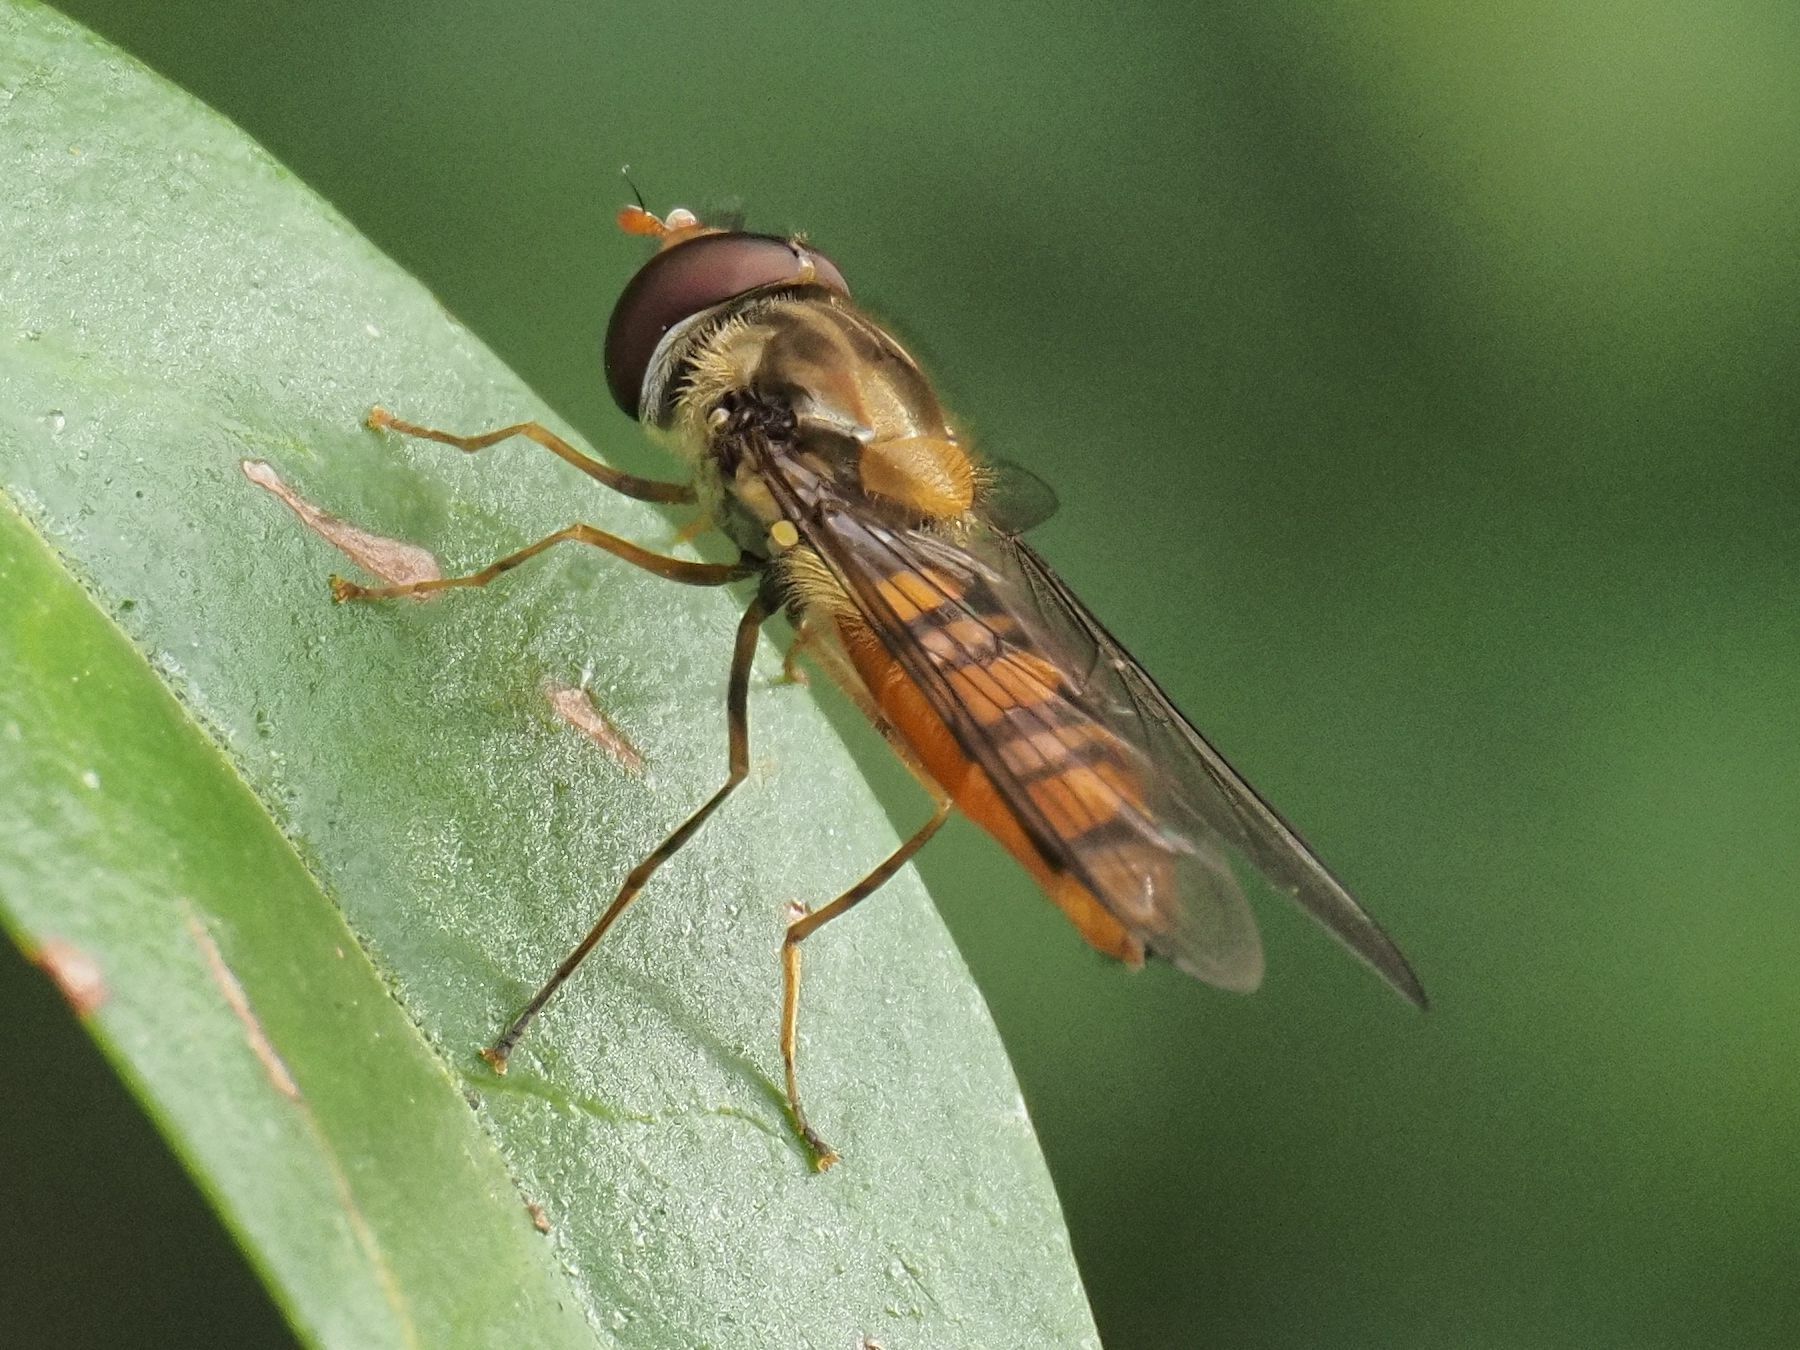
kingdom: Animalia
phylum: Arthropoda
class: Insecta
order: Diptera
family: Syrphidae
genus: Episyrphus
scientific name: Episyrphus balteatus
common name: Marmalade hoverfly
